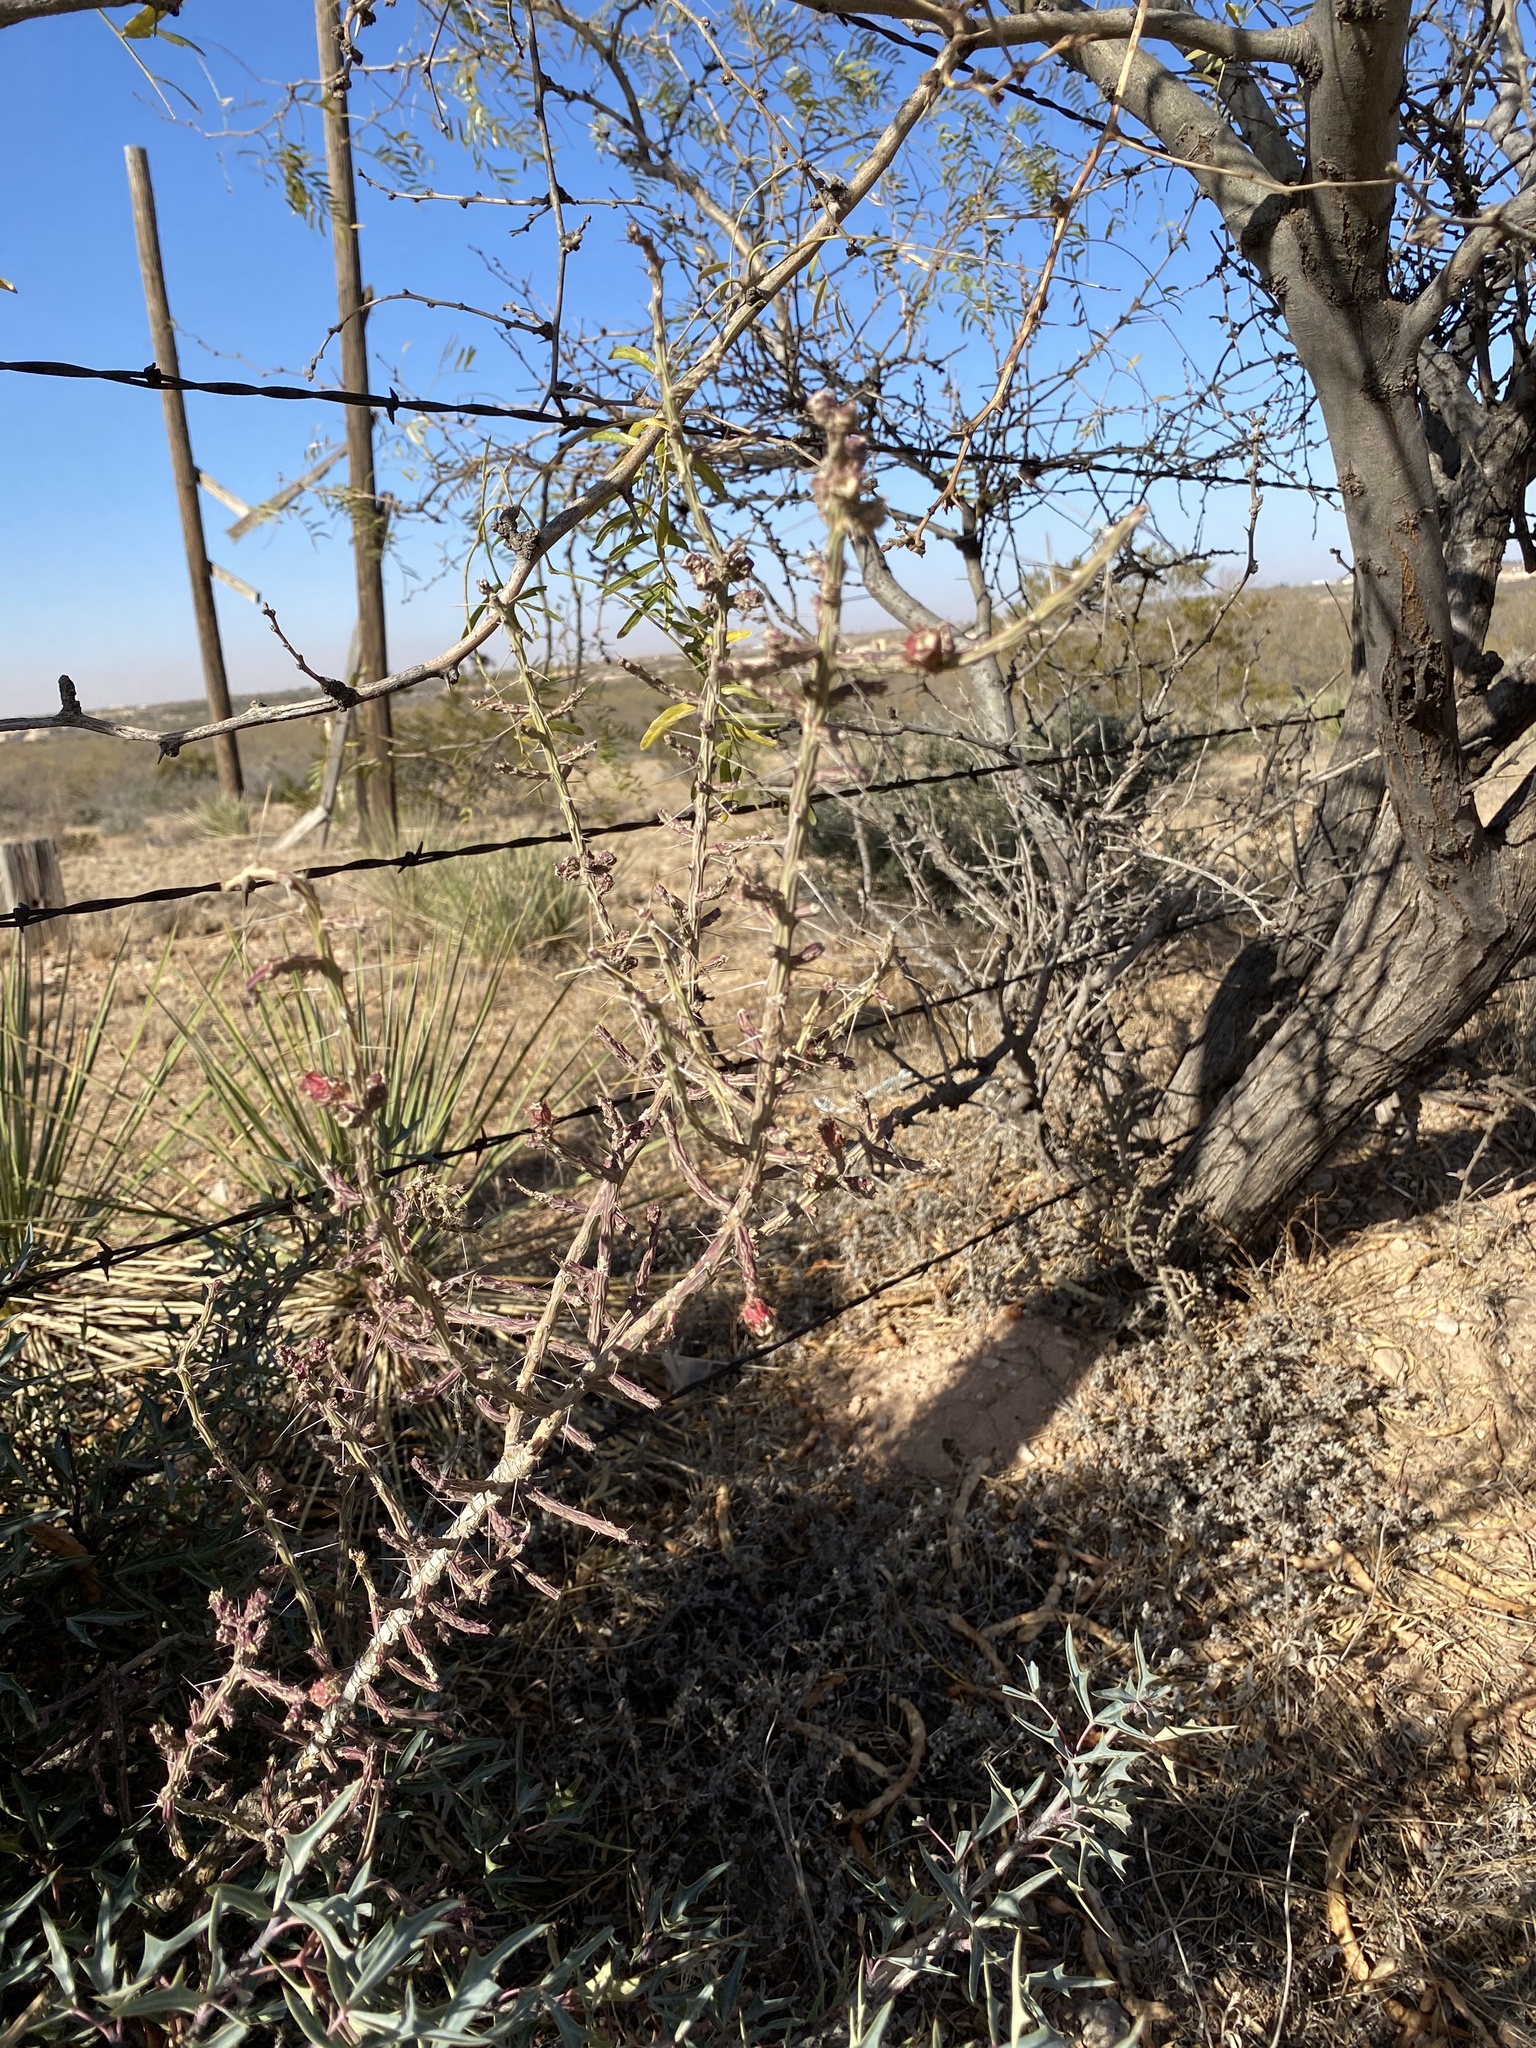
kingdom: Plantae
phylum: Tracheophyta
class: Magnoliopsida
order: Caryophyllales
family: Cactaceae
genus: Cylindropuntia
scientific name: Cylindropuntia leptocaulis
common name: Christmas cactus
